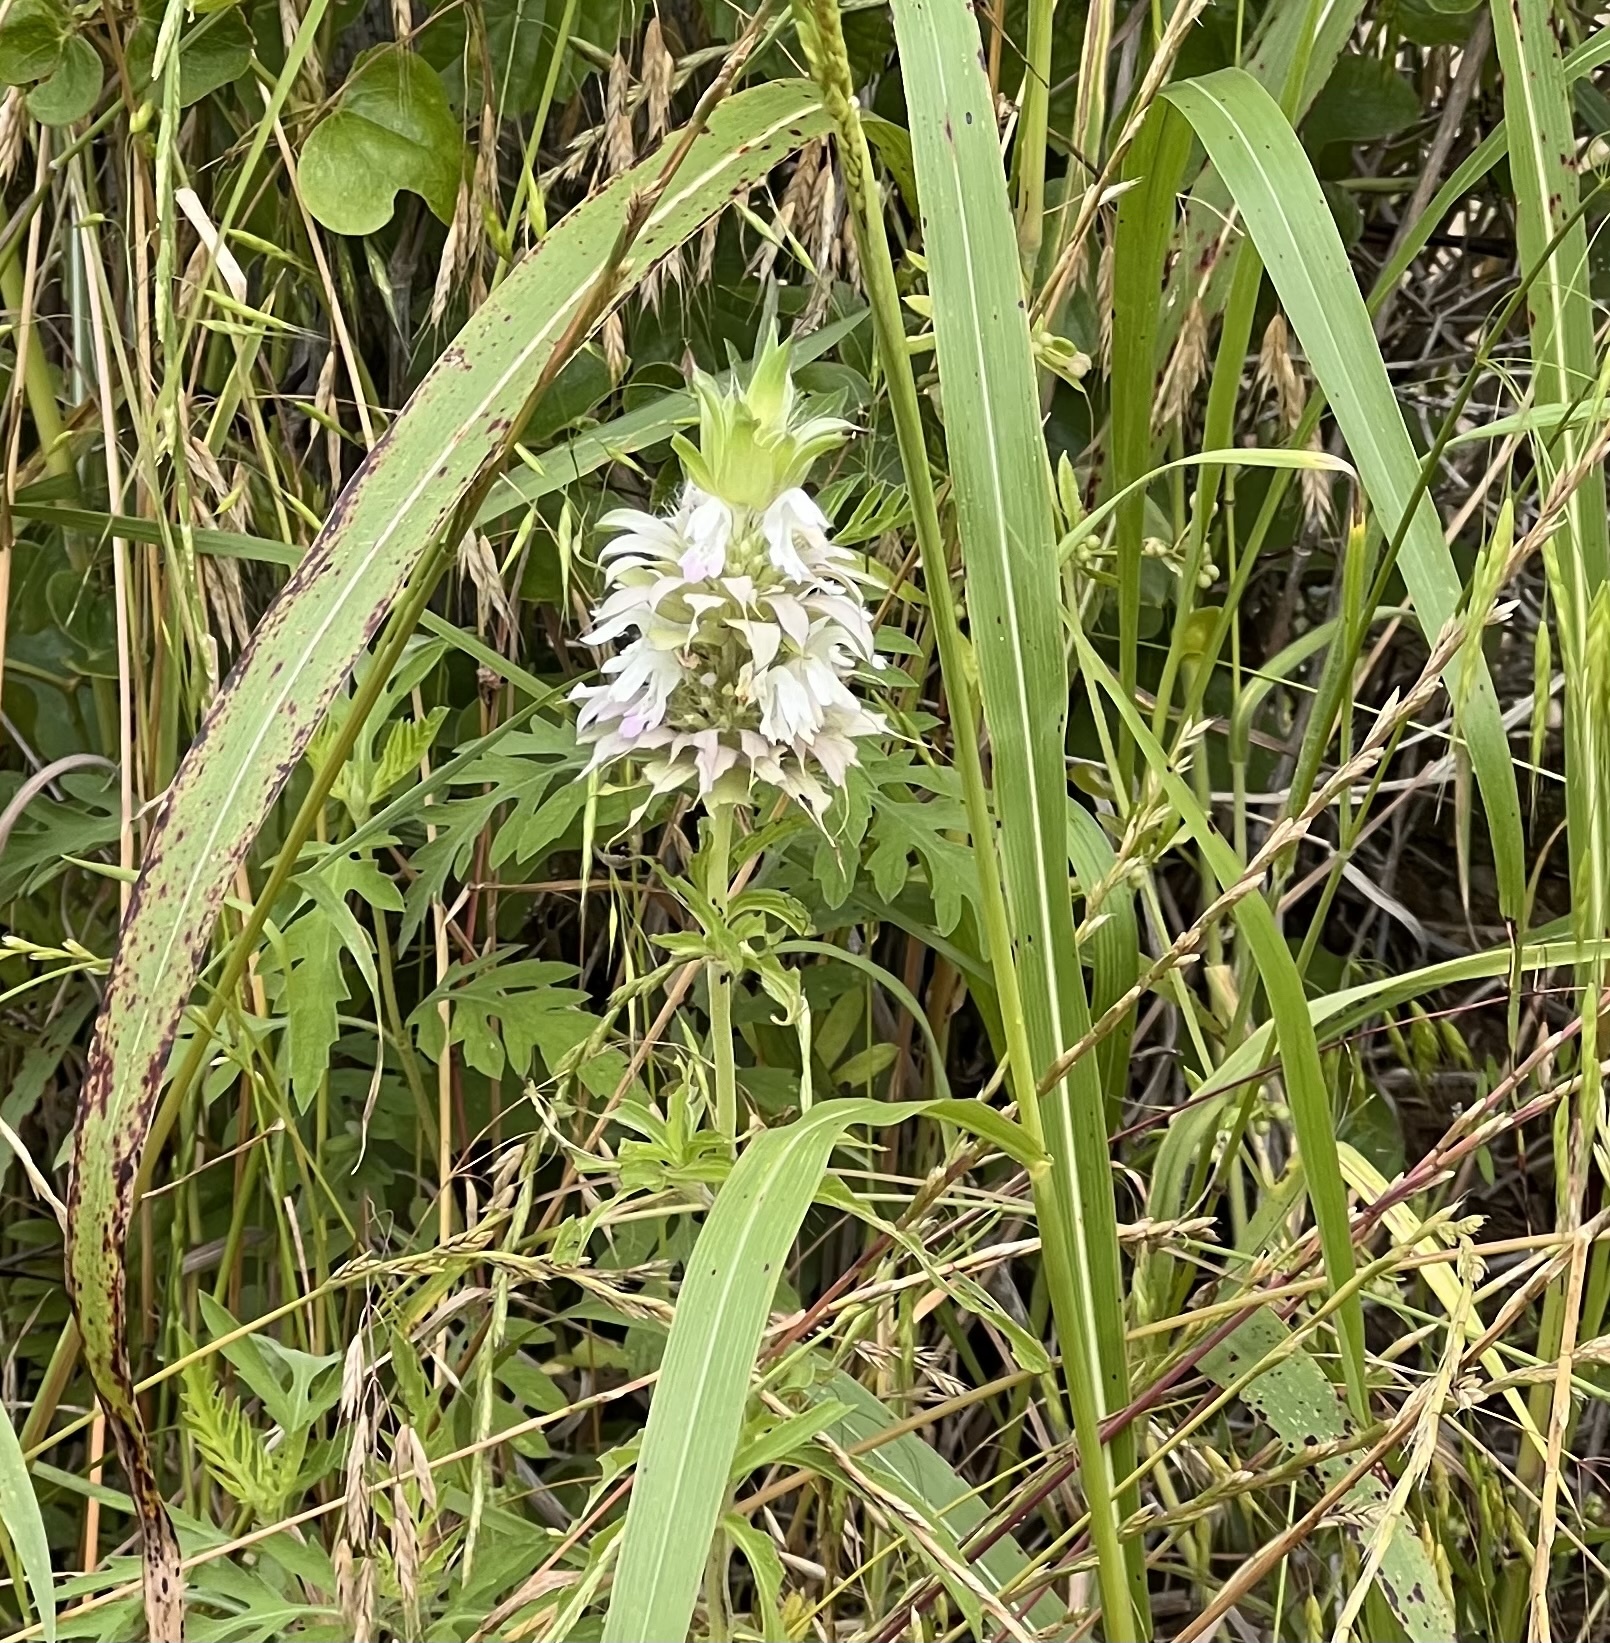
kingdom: Plantae
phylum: Tracheophyta
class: Magnoliopsida
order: Lamiales
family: Lamiaceae
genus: Monarda
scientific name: Monarda citriodora
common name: Lemon beebalm
